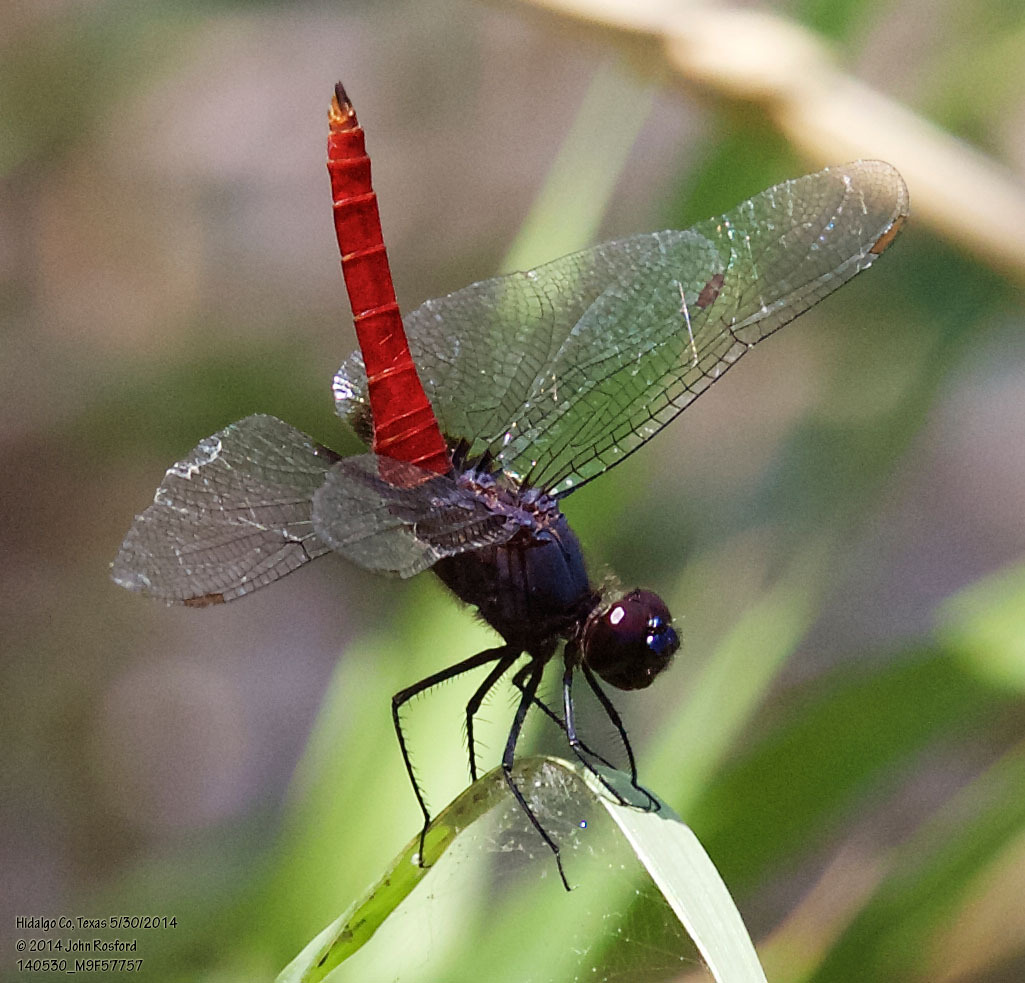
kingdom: Animalia
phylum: Arthropoda
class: Insecta
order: Odonata
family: Libellulidae
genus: Planiplax
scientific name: Planiplax sanguiniventris
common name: Mexican scarlet-tail
